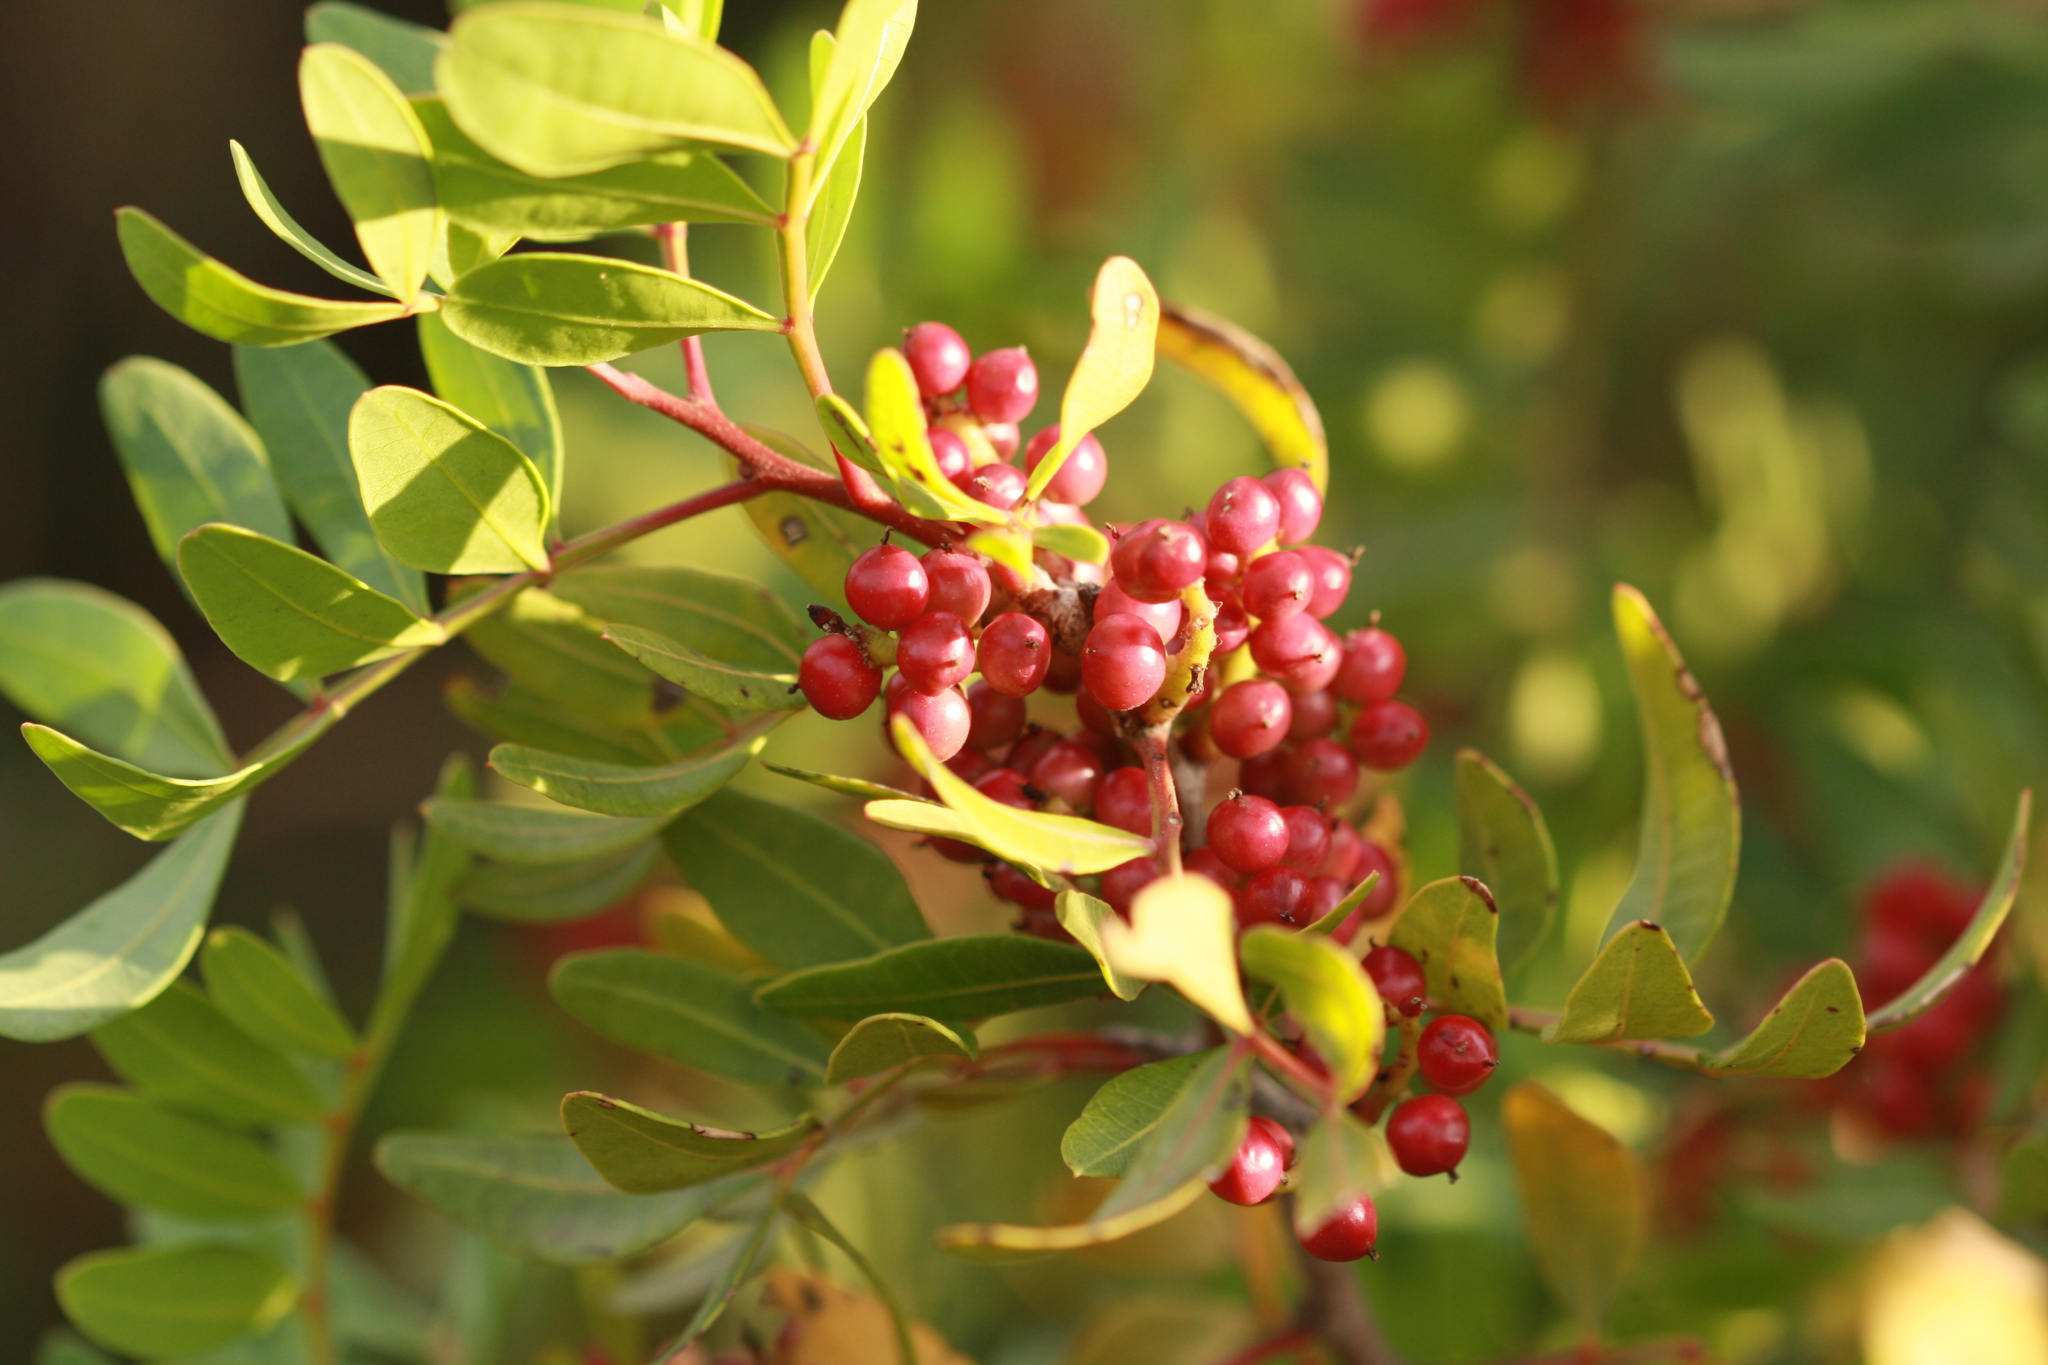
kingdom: Plantae
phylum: Tracheophyta
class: Magnoliopsida
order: Sapindales
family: Anacardiaceae
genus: Pistacia
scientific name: Pistacia lentiscus
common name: Lentisk
